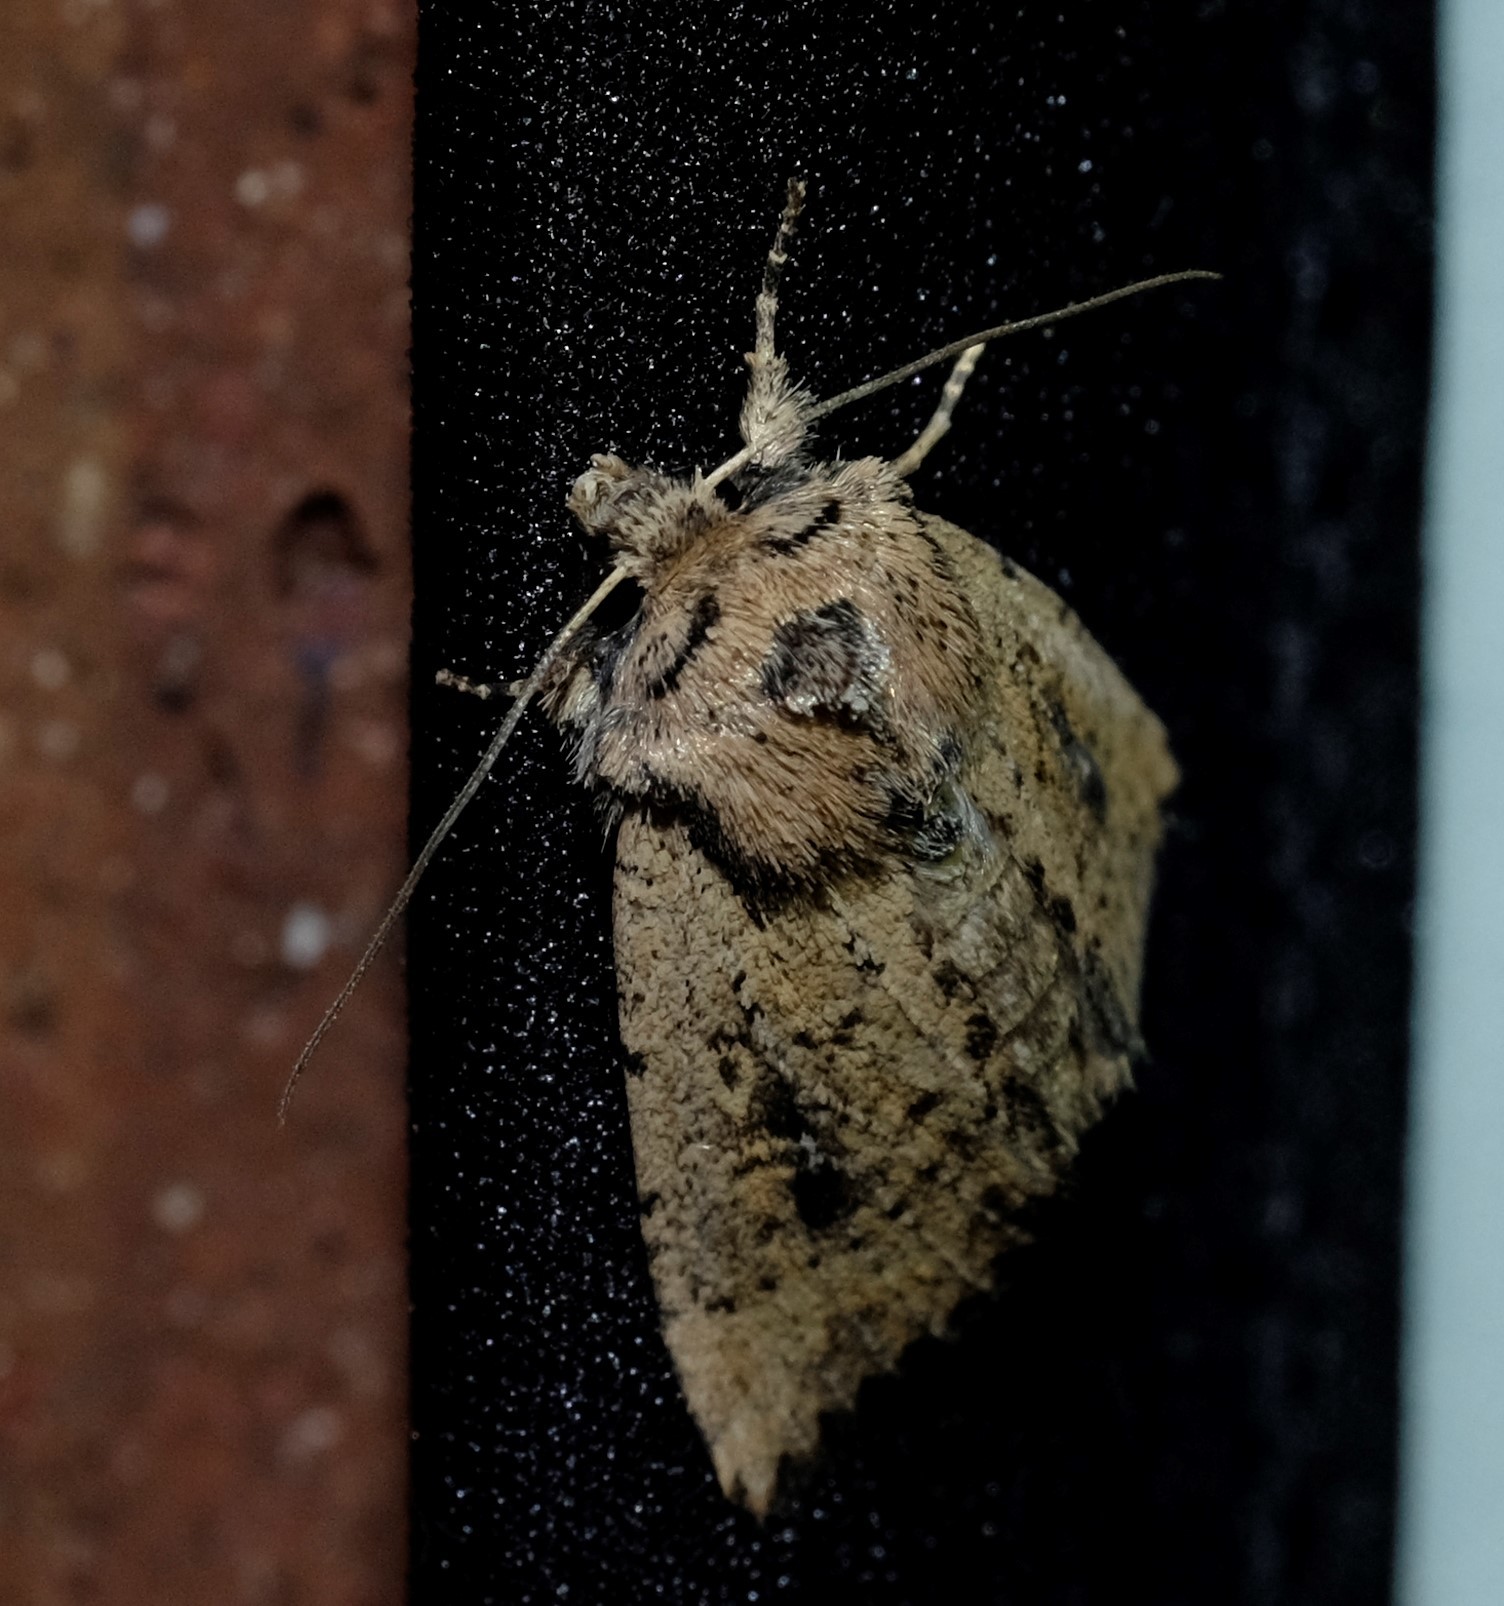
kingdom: Animalia
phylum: Arthropoda
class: Insecta
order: Lepidoptera
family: Noctuidae
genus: Leucania
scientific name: Leucania obumbrata
